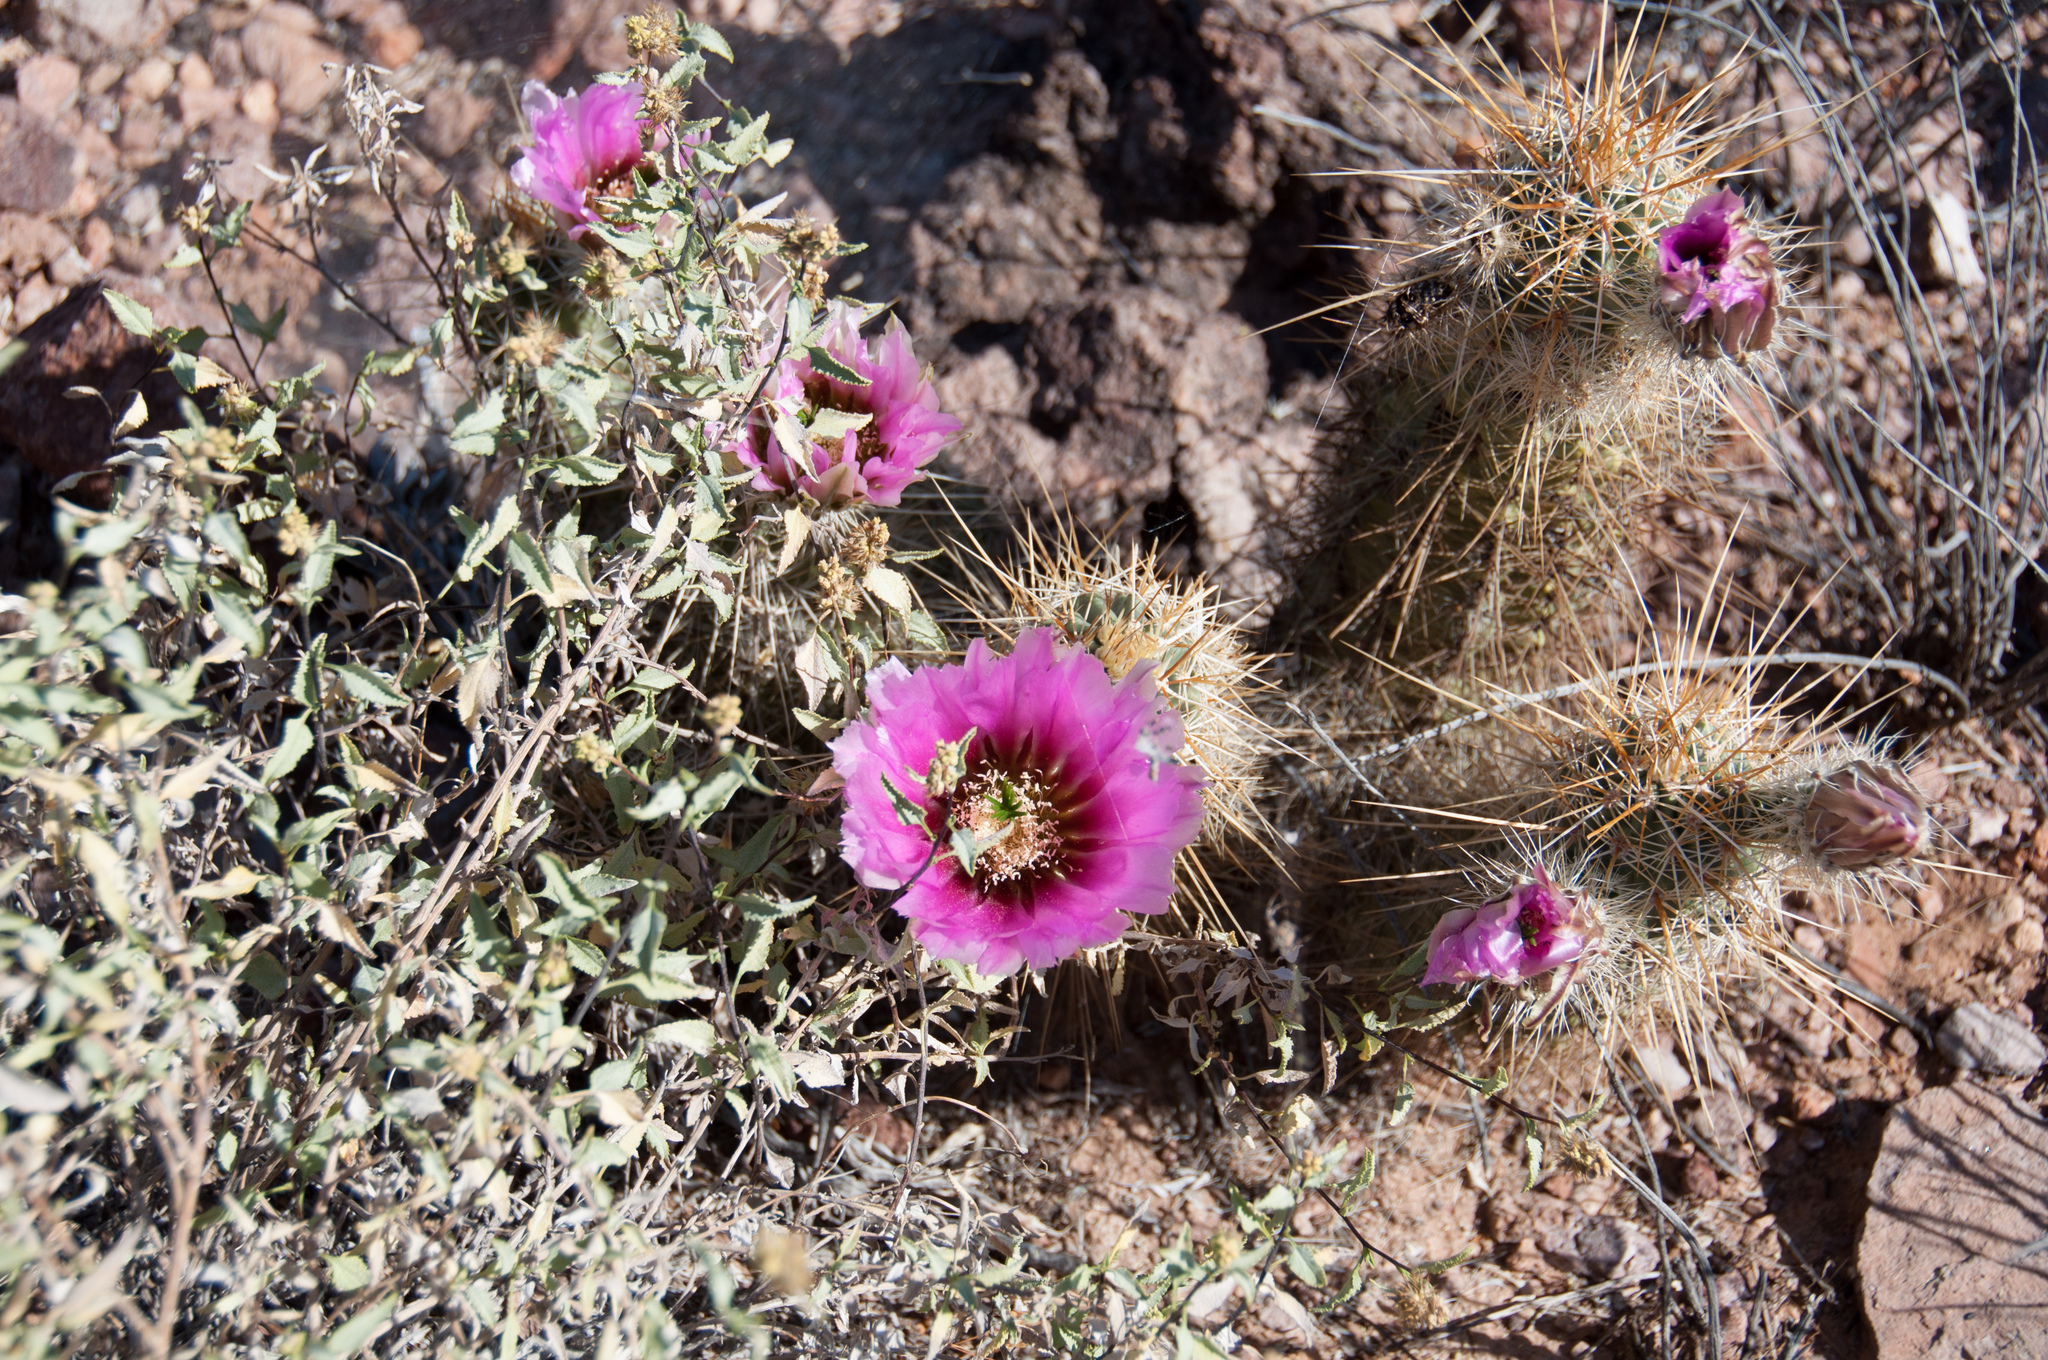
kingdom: Plantae
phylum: Tracheophyta
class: Magnoliopsida
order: Caryophyllales
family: Cactaceae
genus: Echinocereus
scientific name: Echinocereus engelmannii
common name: Engelmann's hedgehog cactus
